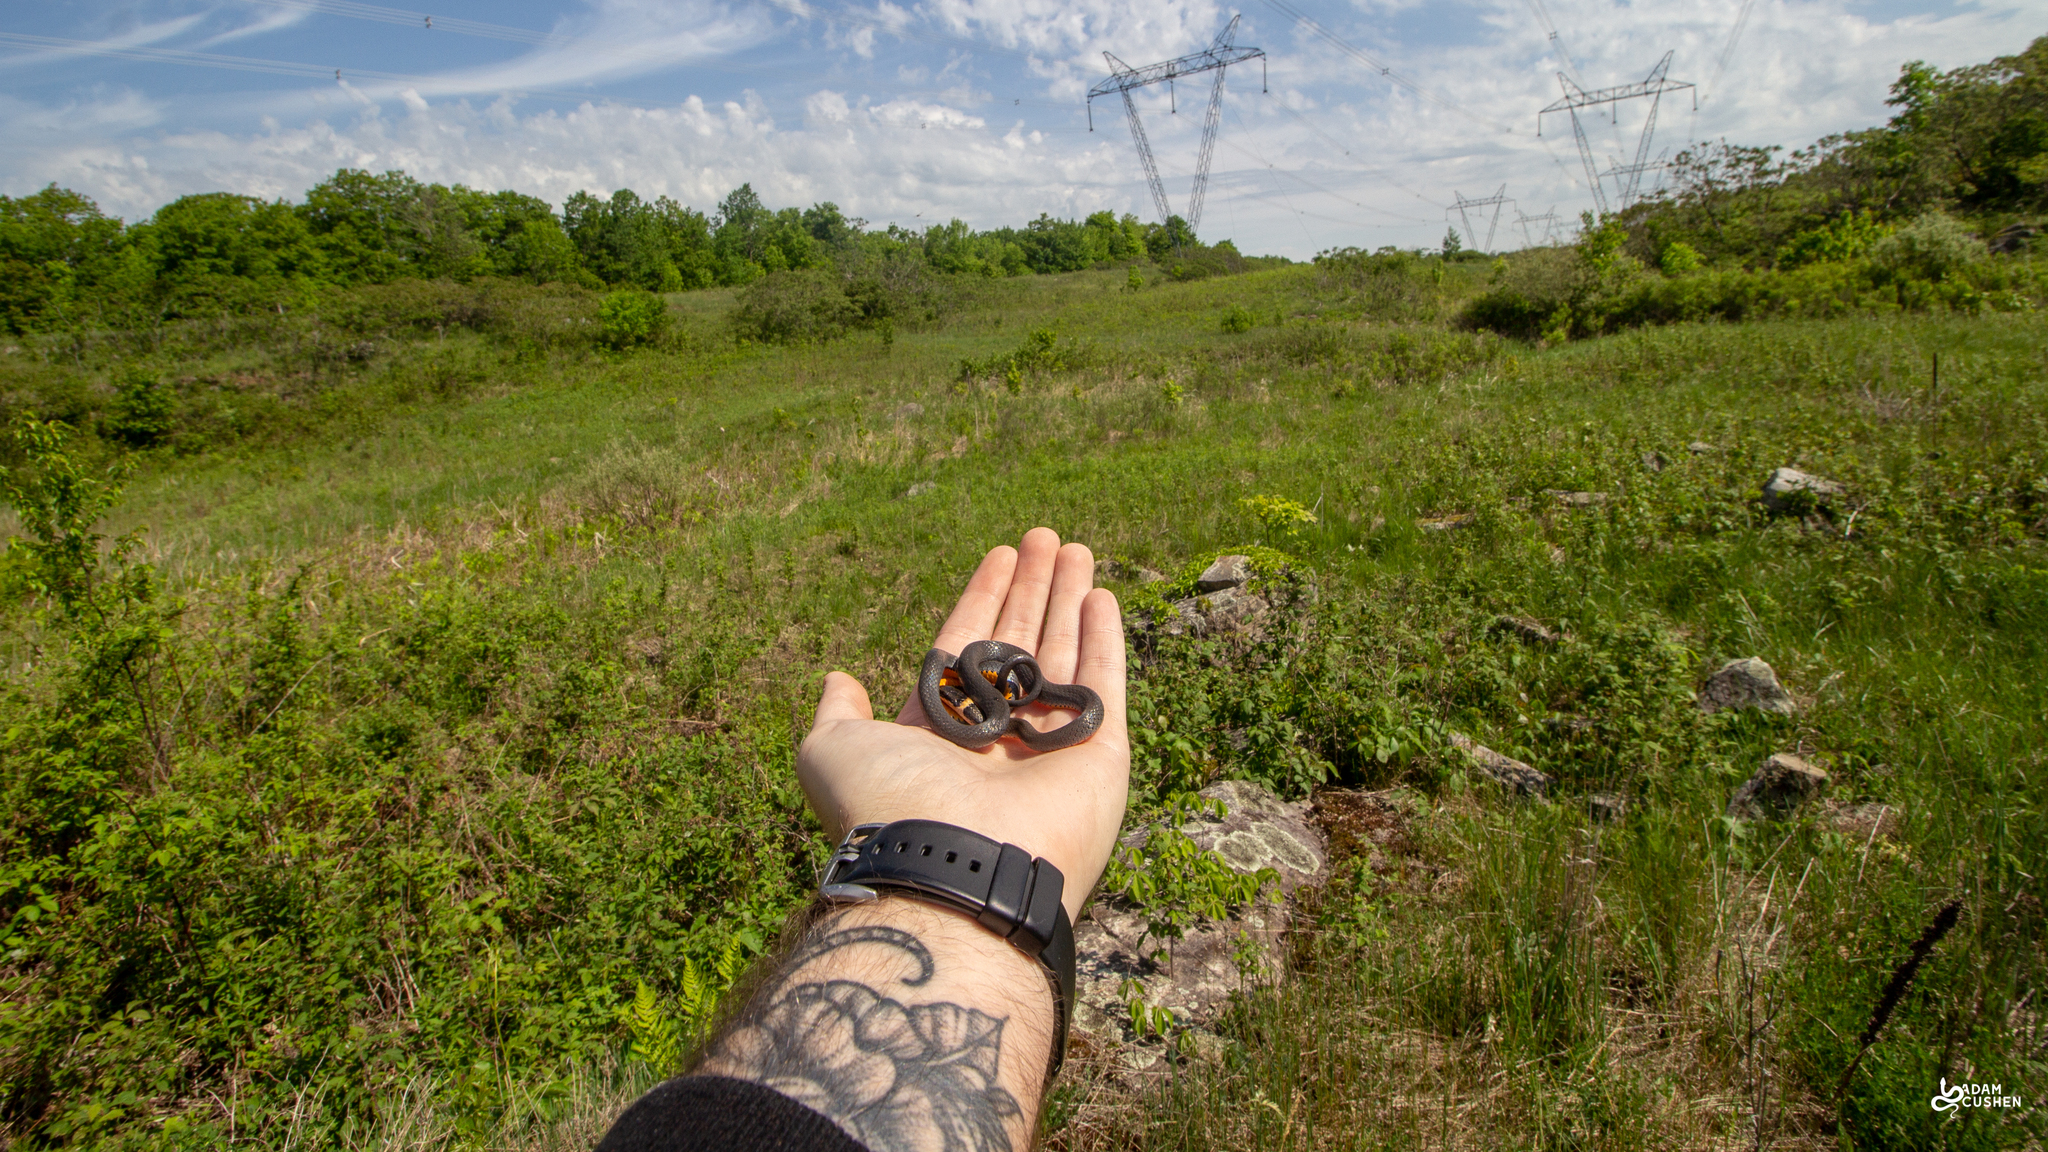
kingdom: Animalia
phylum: Chordata
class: Squamata
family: Colubridae
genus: Diadophis
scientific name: Diadophis punctatus
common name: Ringneck snake
